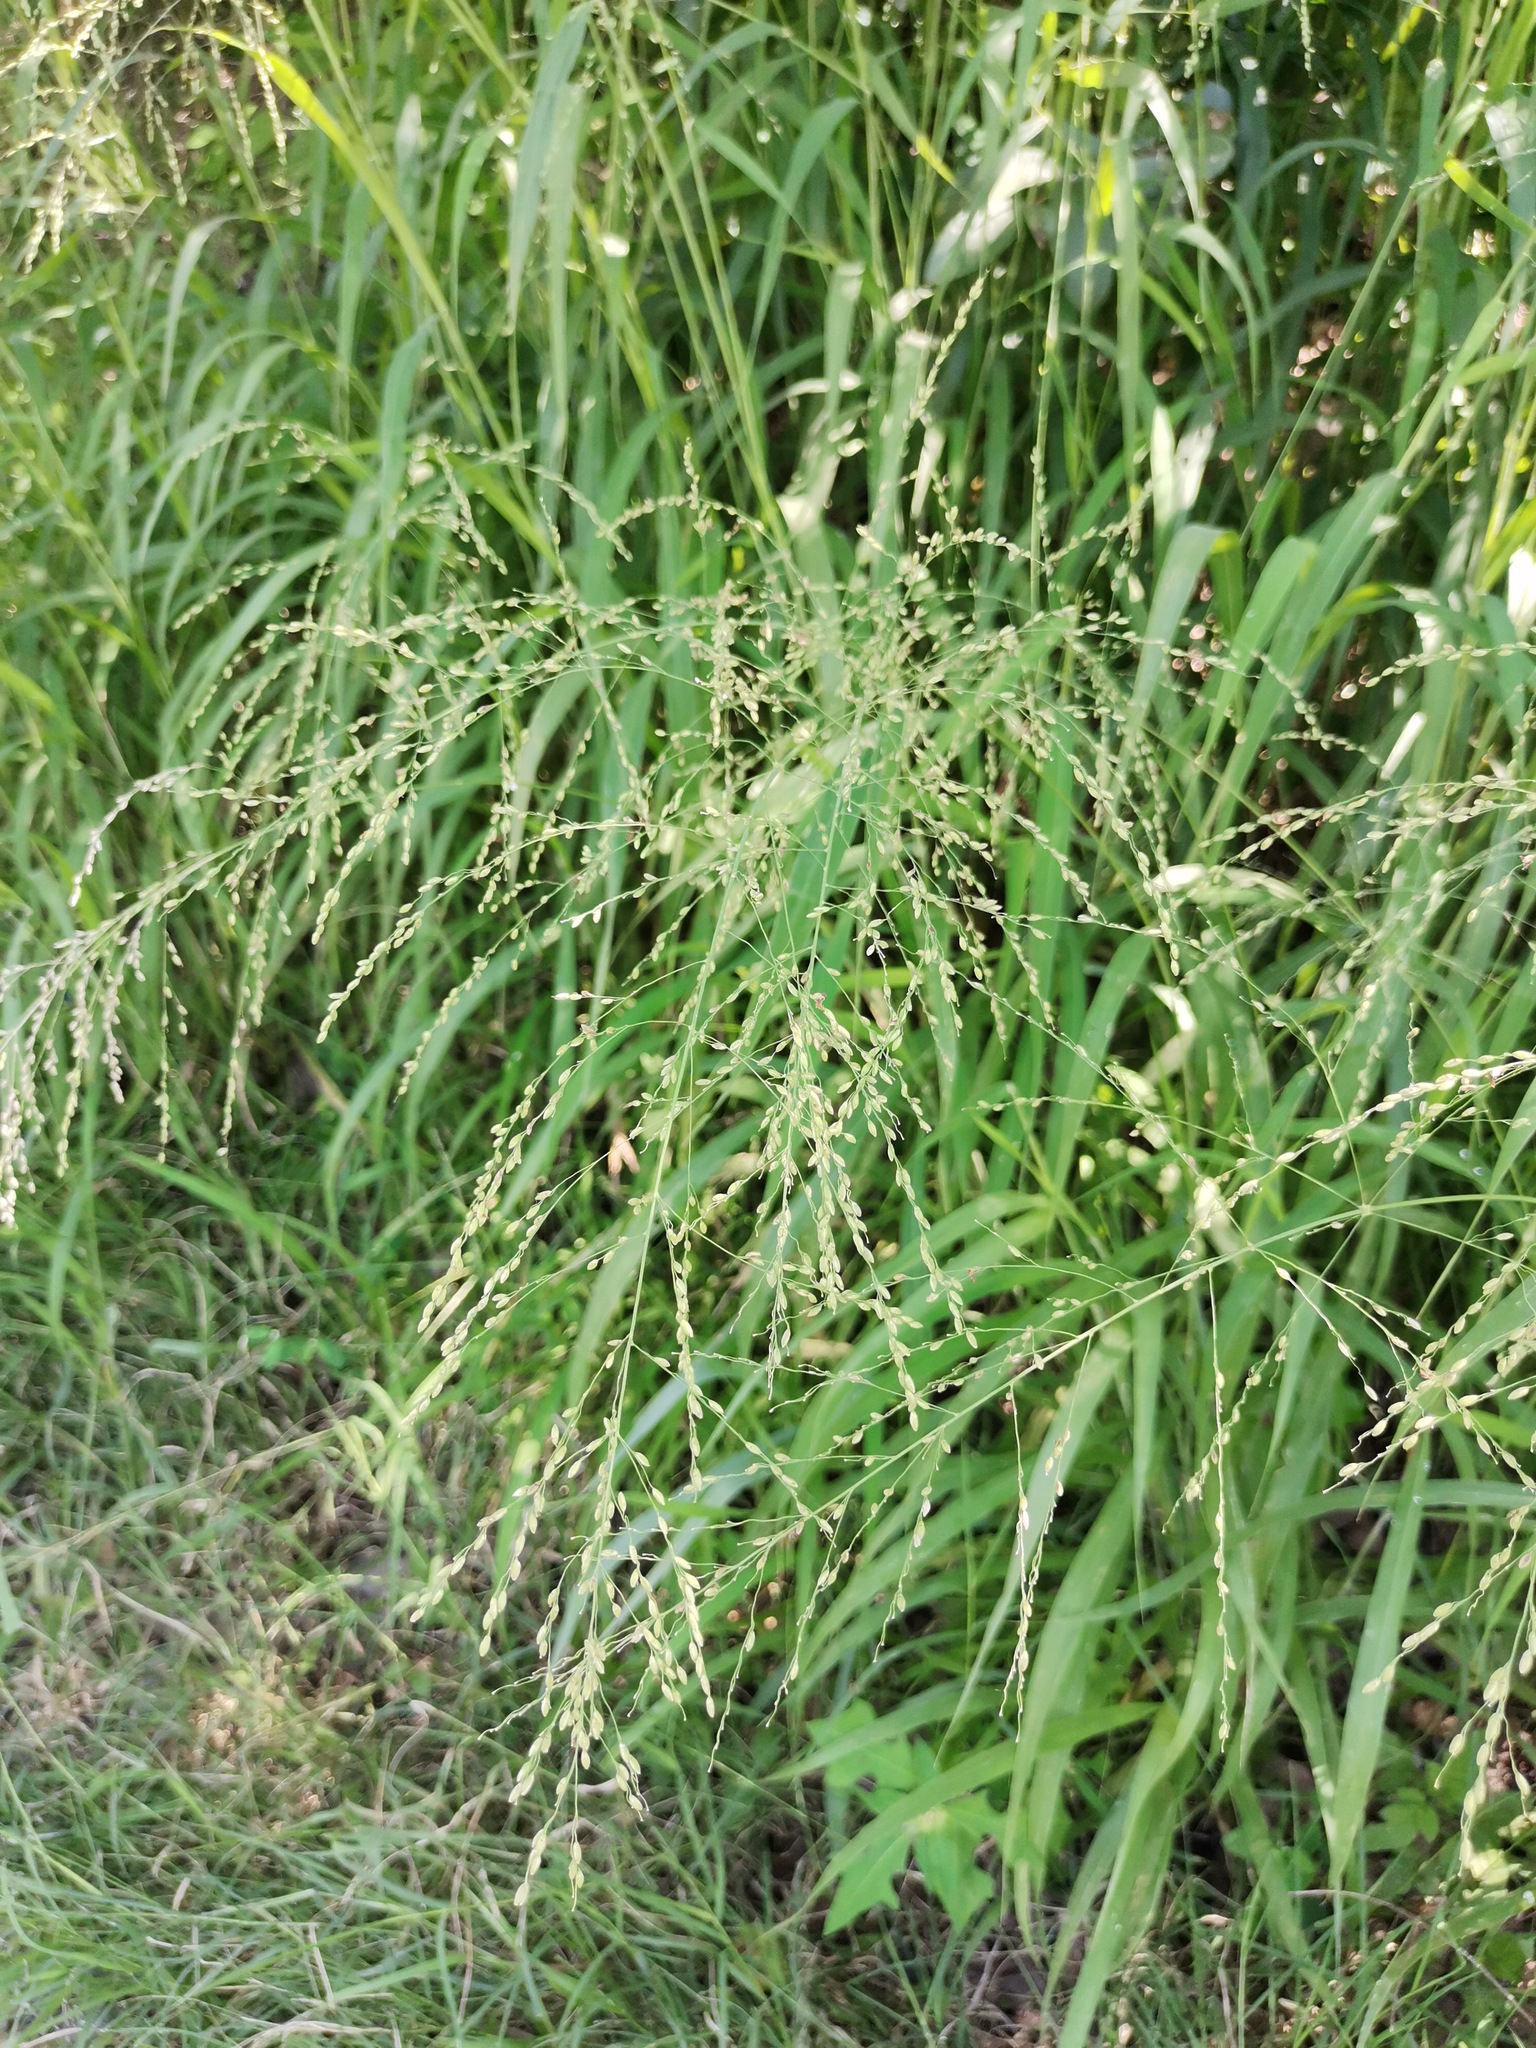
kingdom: Plantae
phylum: Tracheophyta
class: Liliopsida
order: Poales
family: Poaceae
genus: Megathyrsus
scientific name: Megathyrsus maximus
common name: Guineagrass
